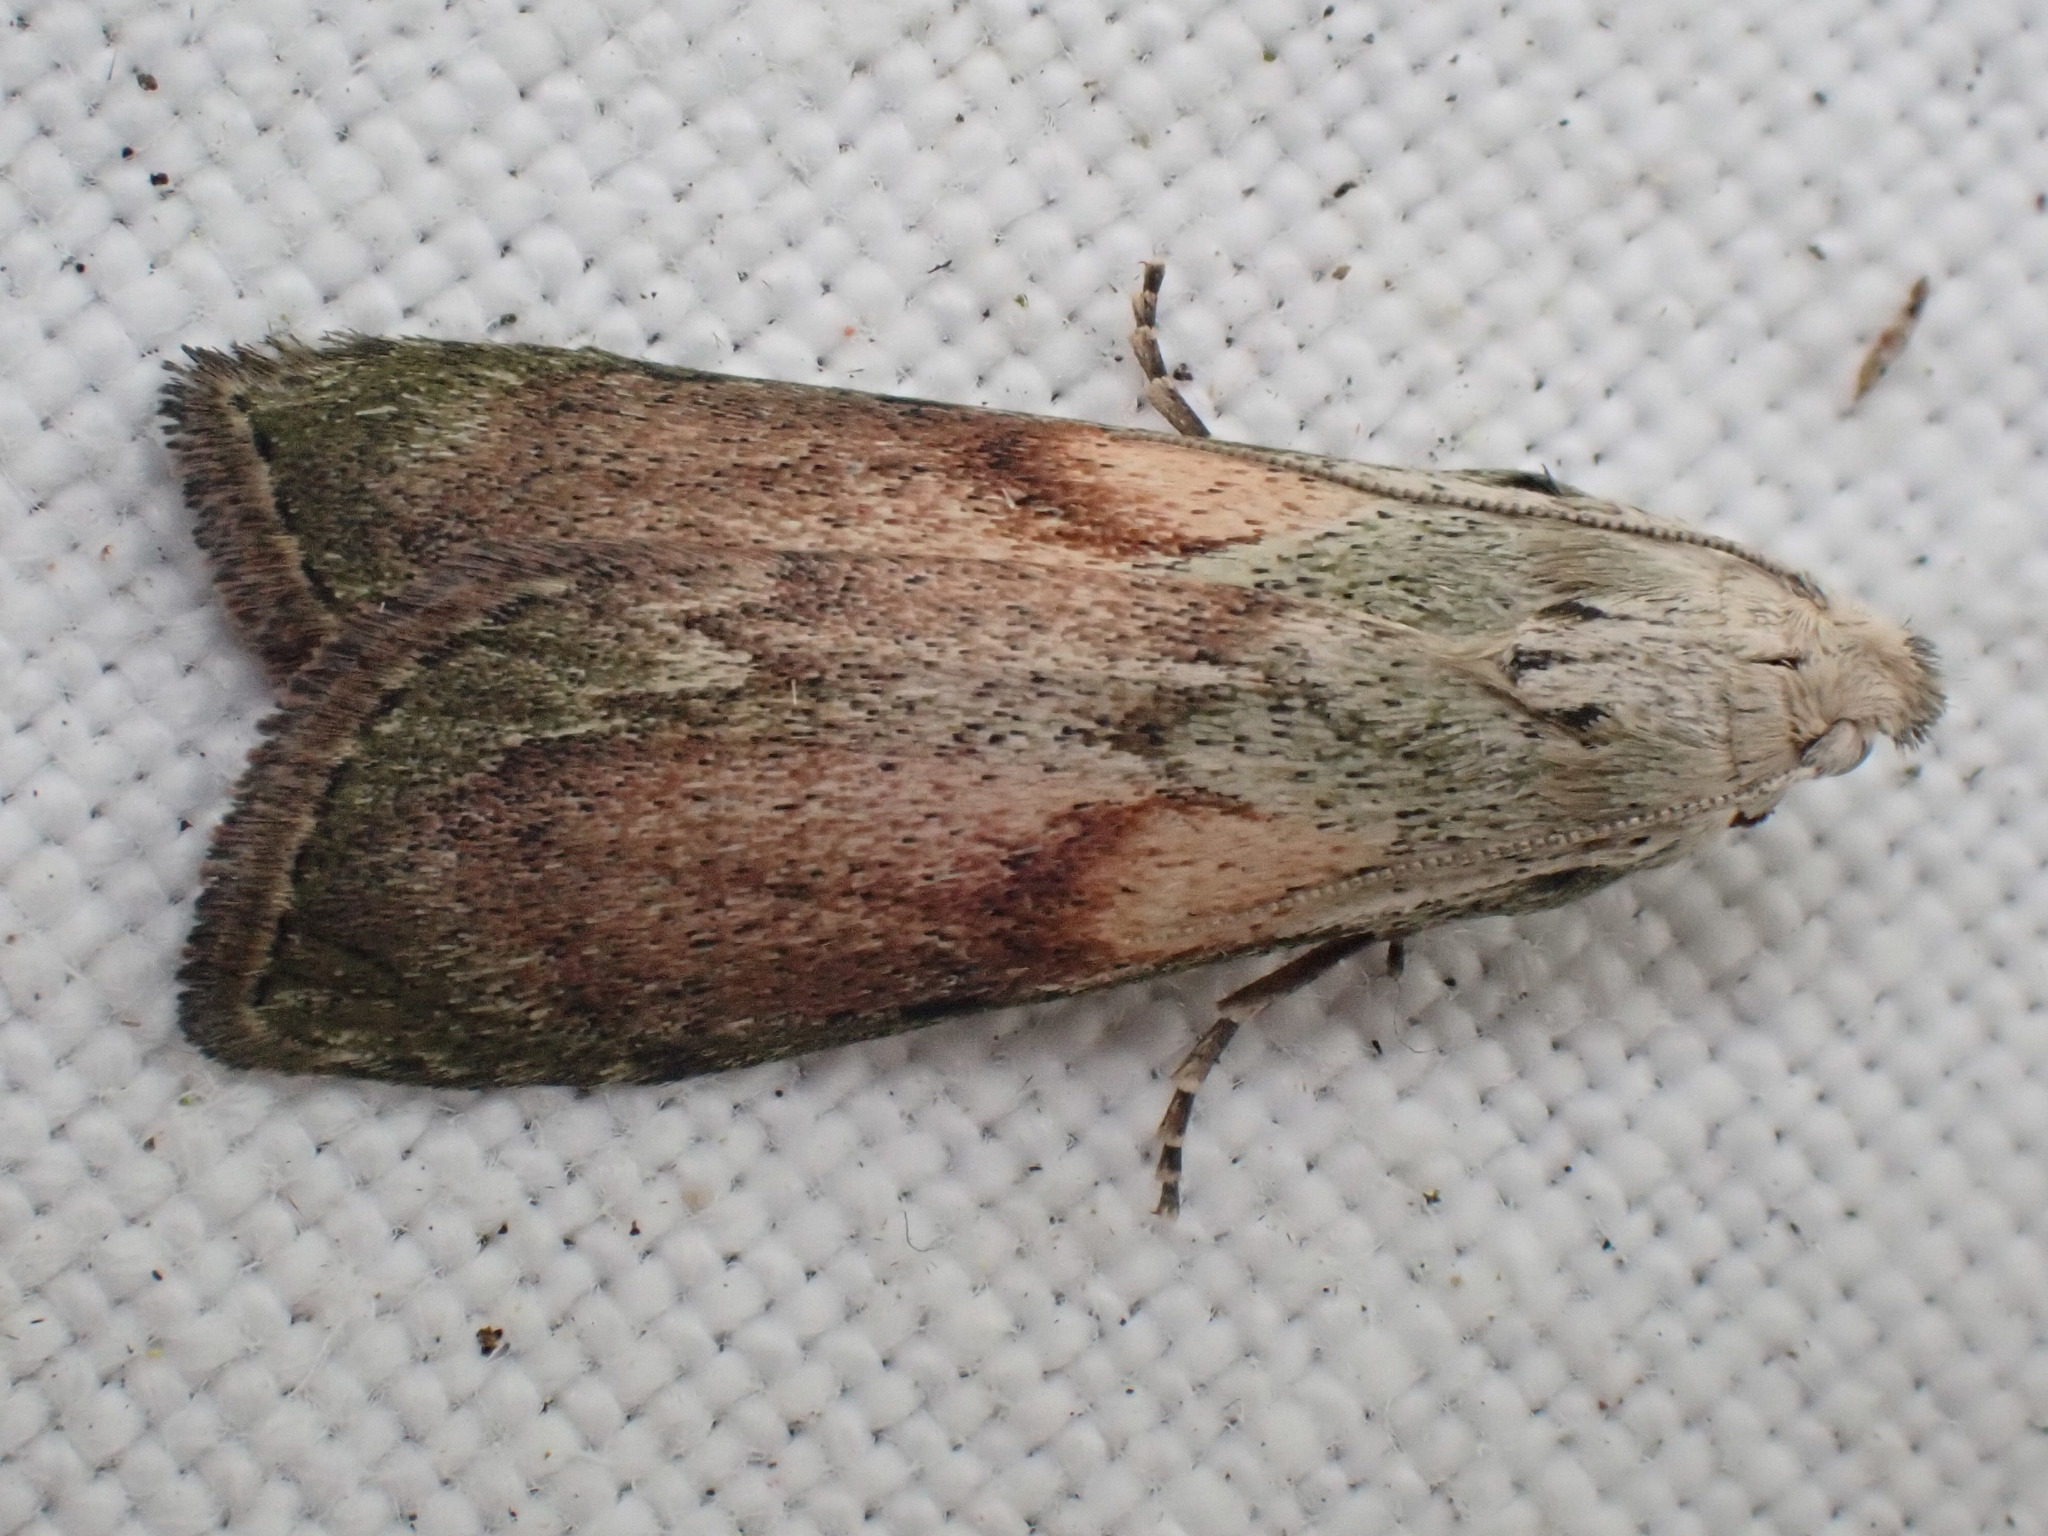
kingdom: Animalia
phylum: Arthropoda
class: Insecta
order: Lepidoptera
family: Pyralidae
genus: Aphomia
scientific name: Aphomia sociella
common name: Bee moth
